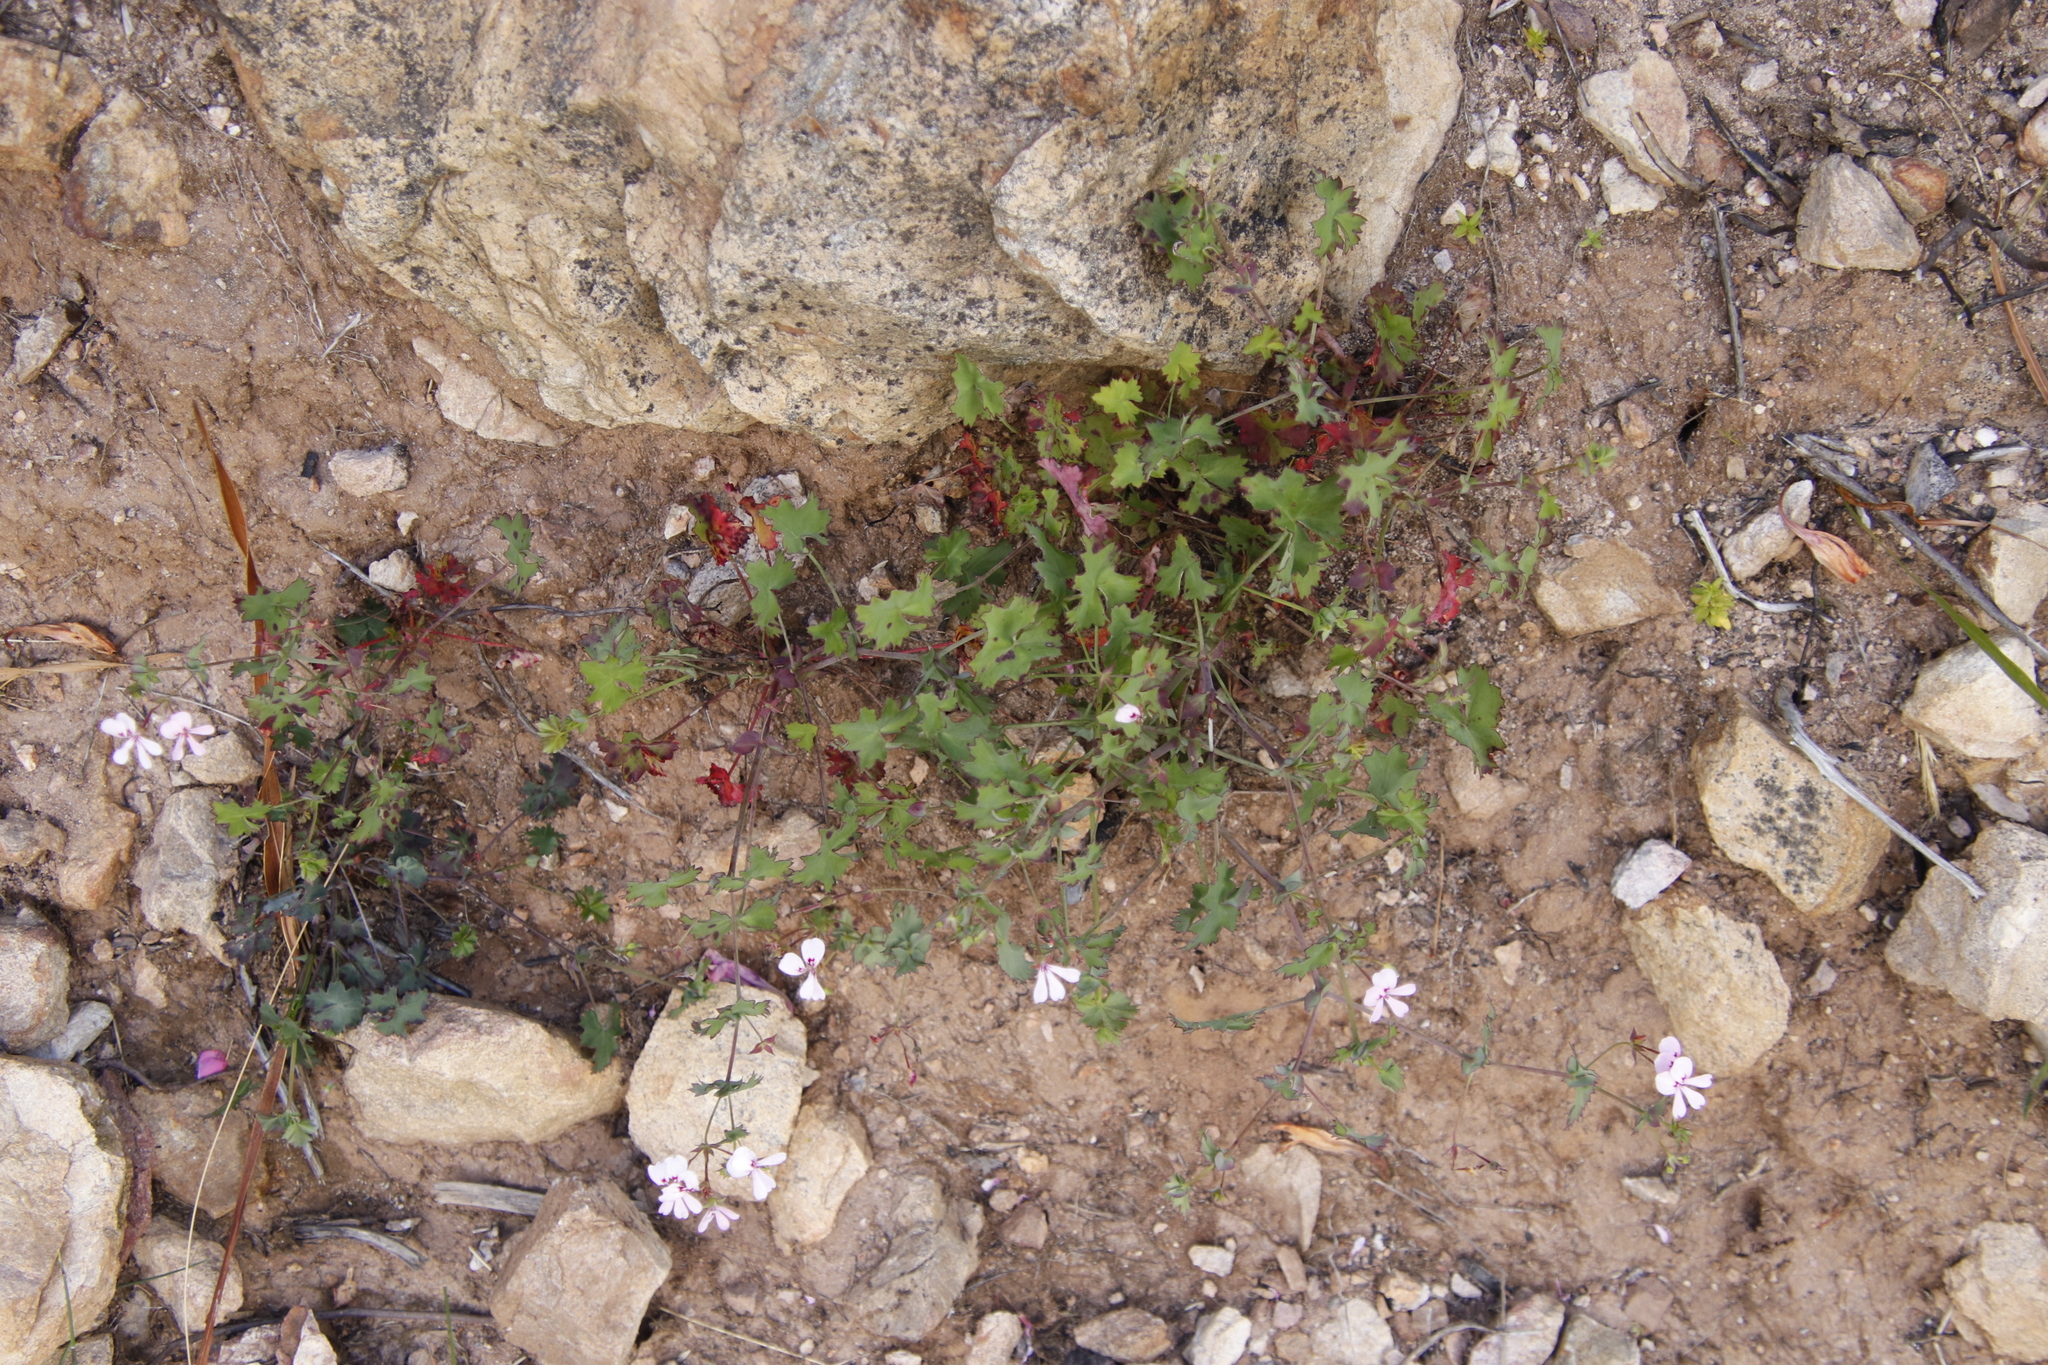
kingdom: Plantae
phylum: Tracheophyta
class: Magnoliopsida
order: Geraniales
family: Geraniaceae
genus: Pelargonium
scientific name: Pelargonium patulum
